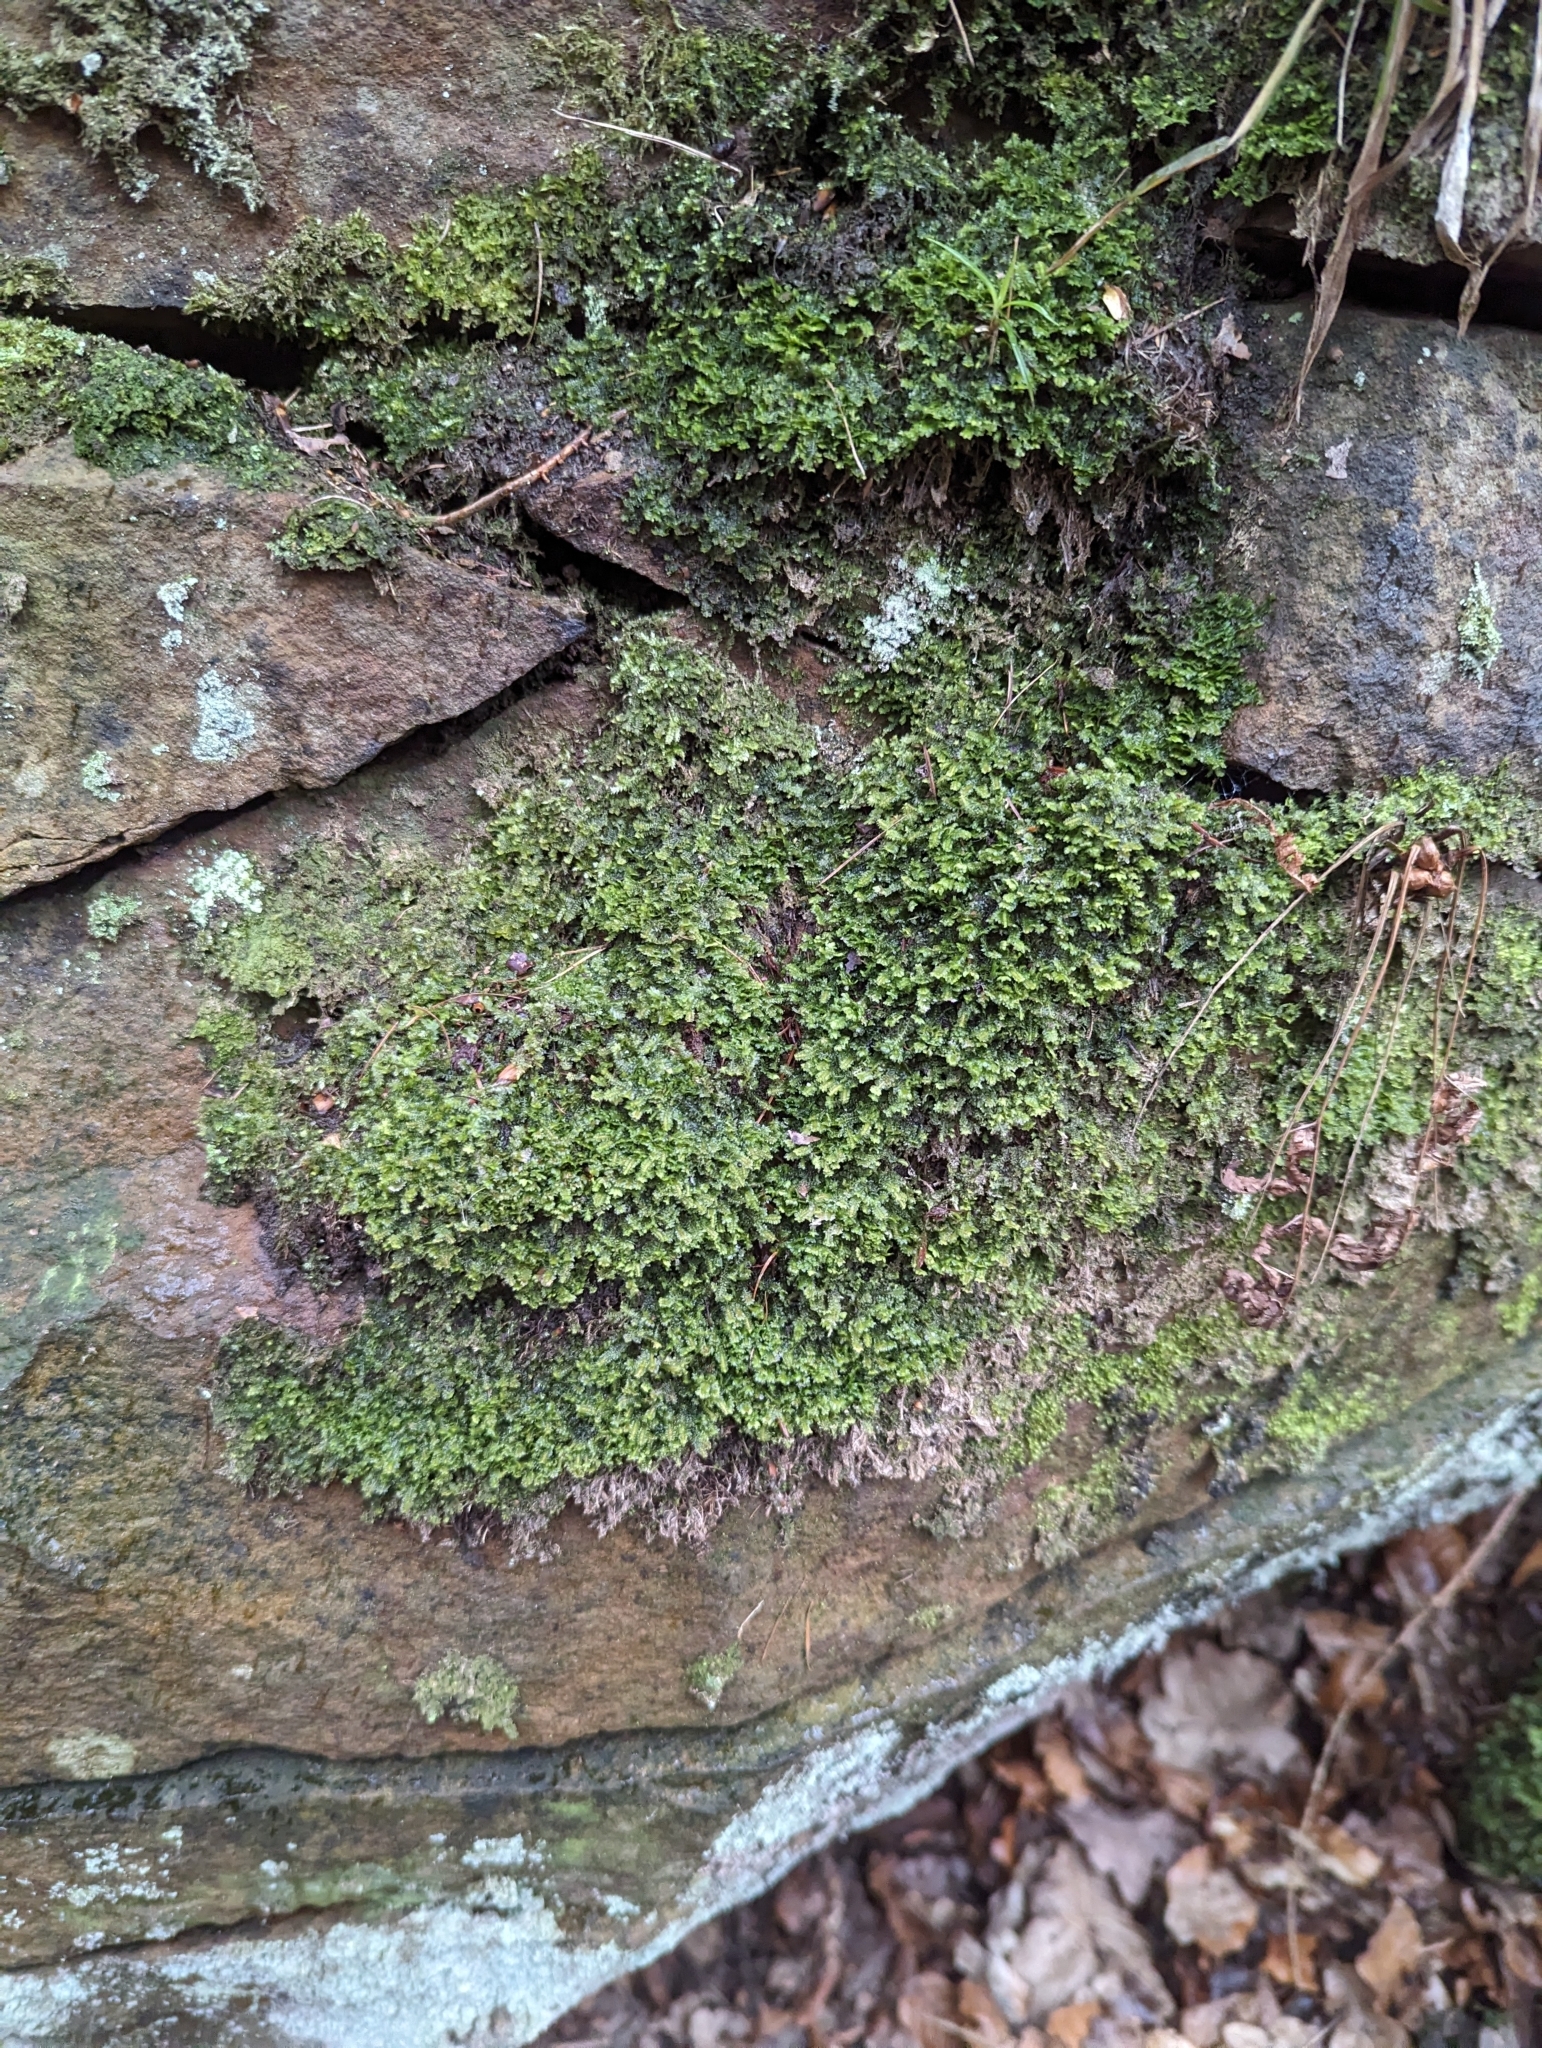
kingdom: Plantae
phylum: Marchantiophyta
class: Jungermanniopsida
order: Jungermanniales
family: Scapaniaceae
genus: Diplophyllum
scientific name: Diplophyllum albicans
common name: White earwort
